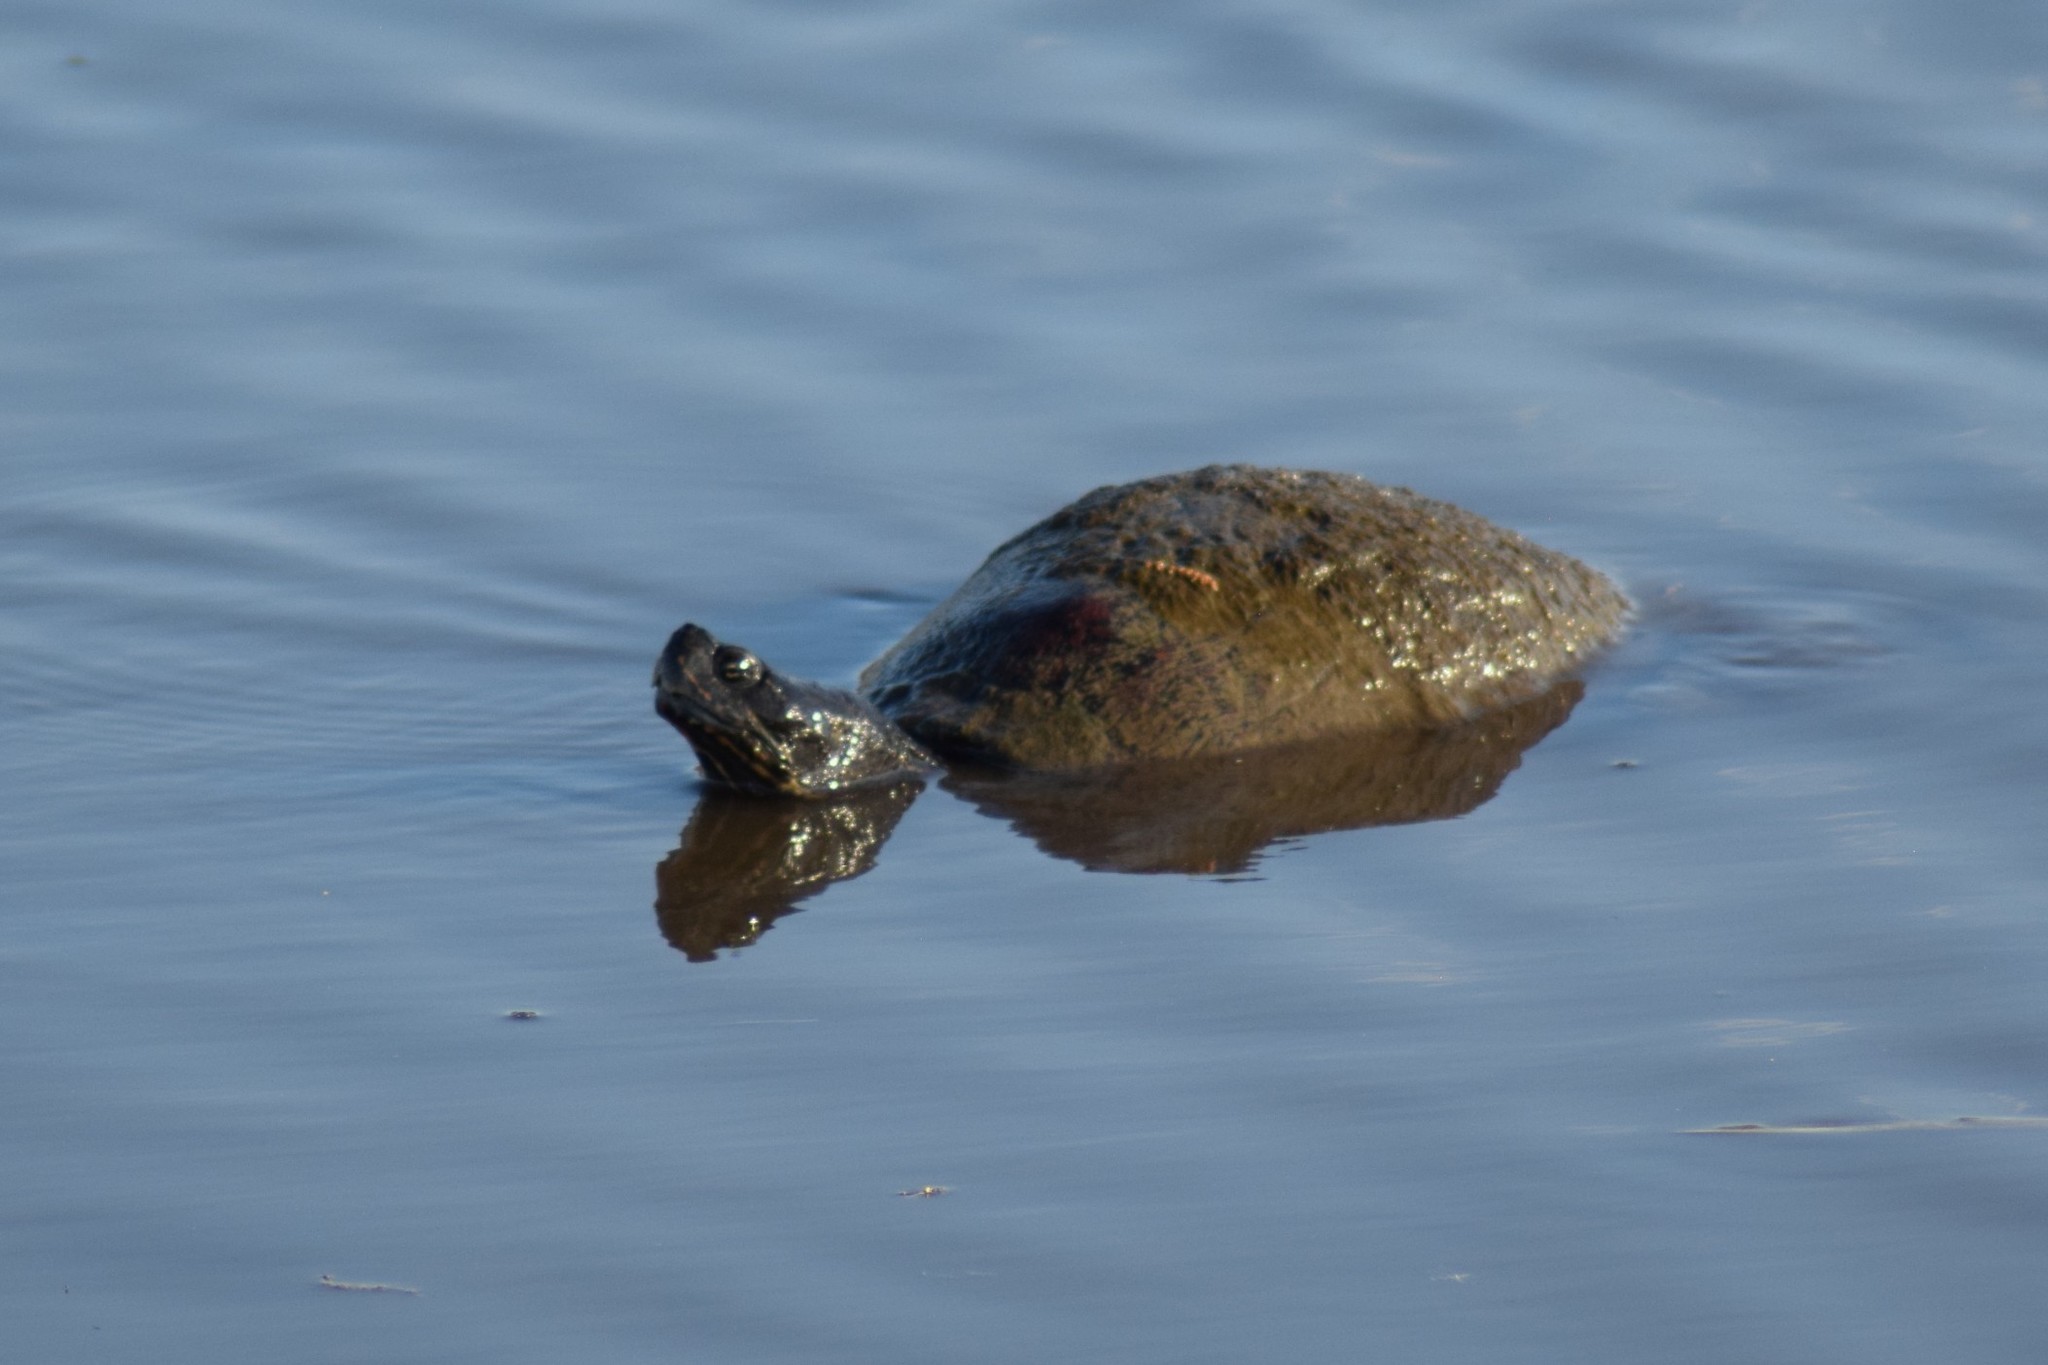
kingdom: Animalia
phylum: Chordata
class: Testudines
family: Emydidae
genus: Pseudemys
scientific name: Pseudemys rubriventris
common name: American red-bellied turtle
